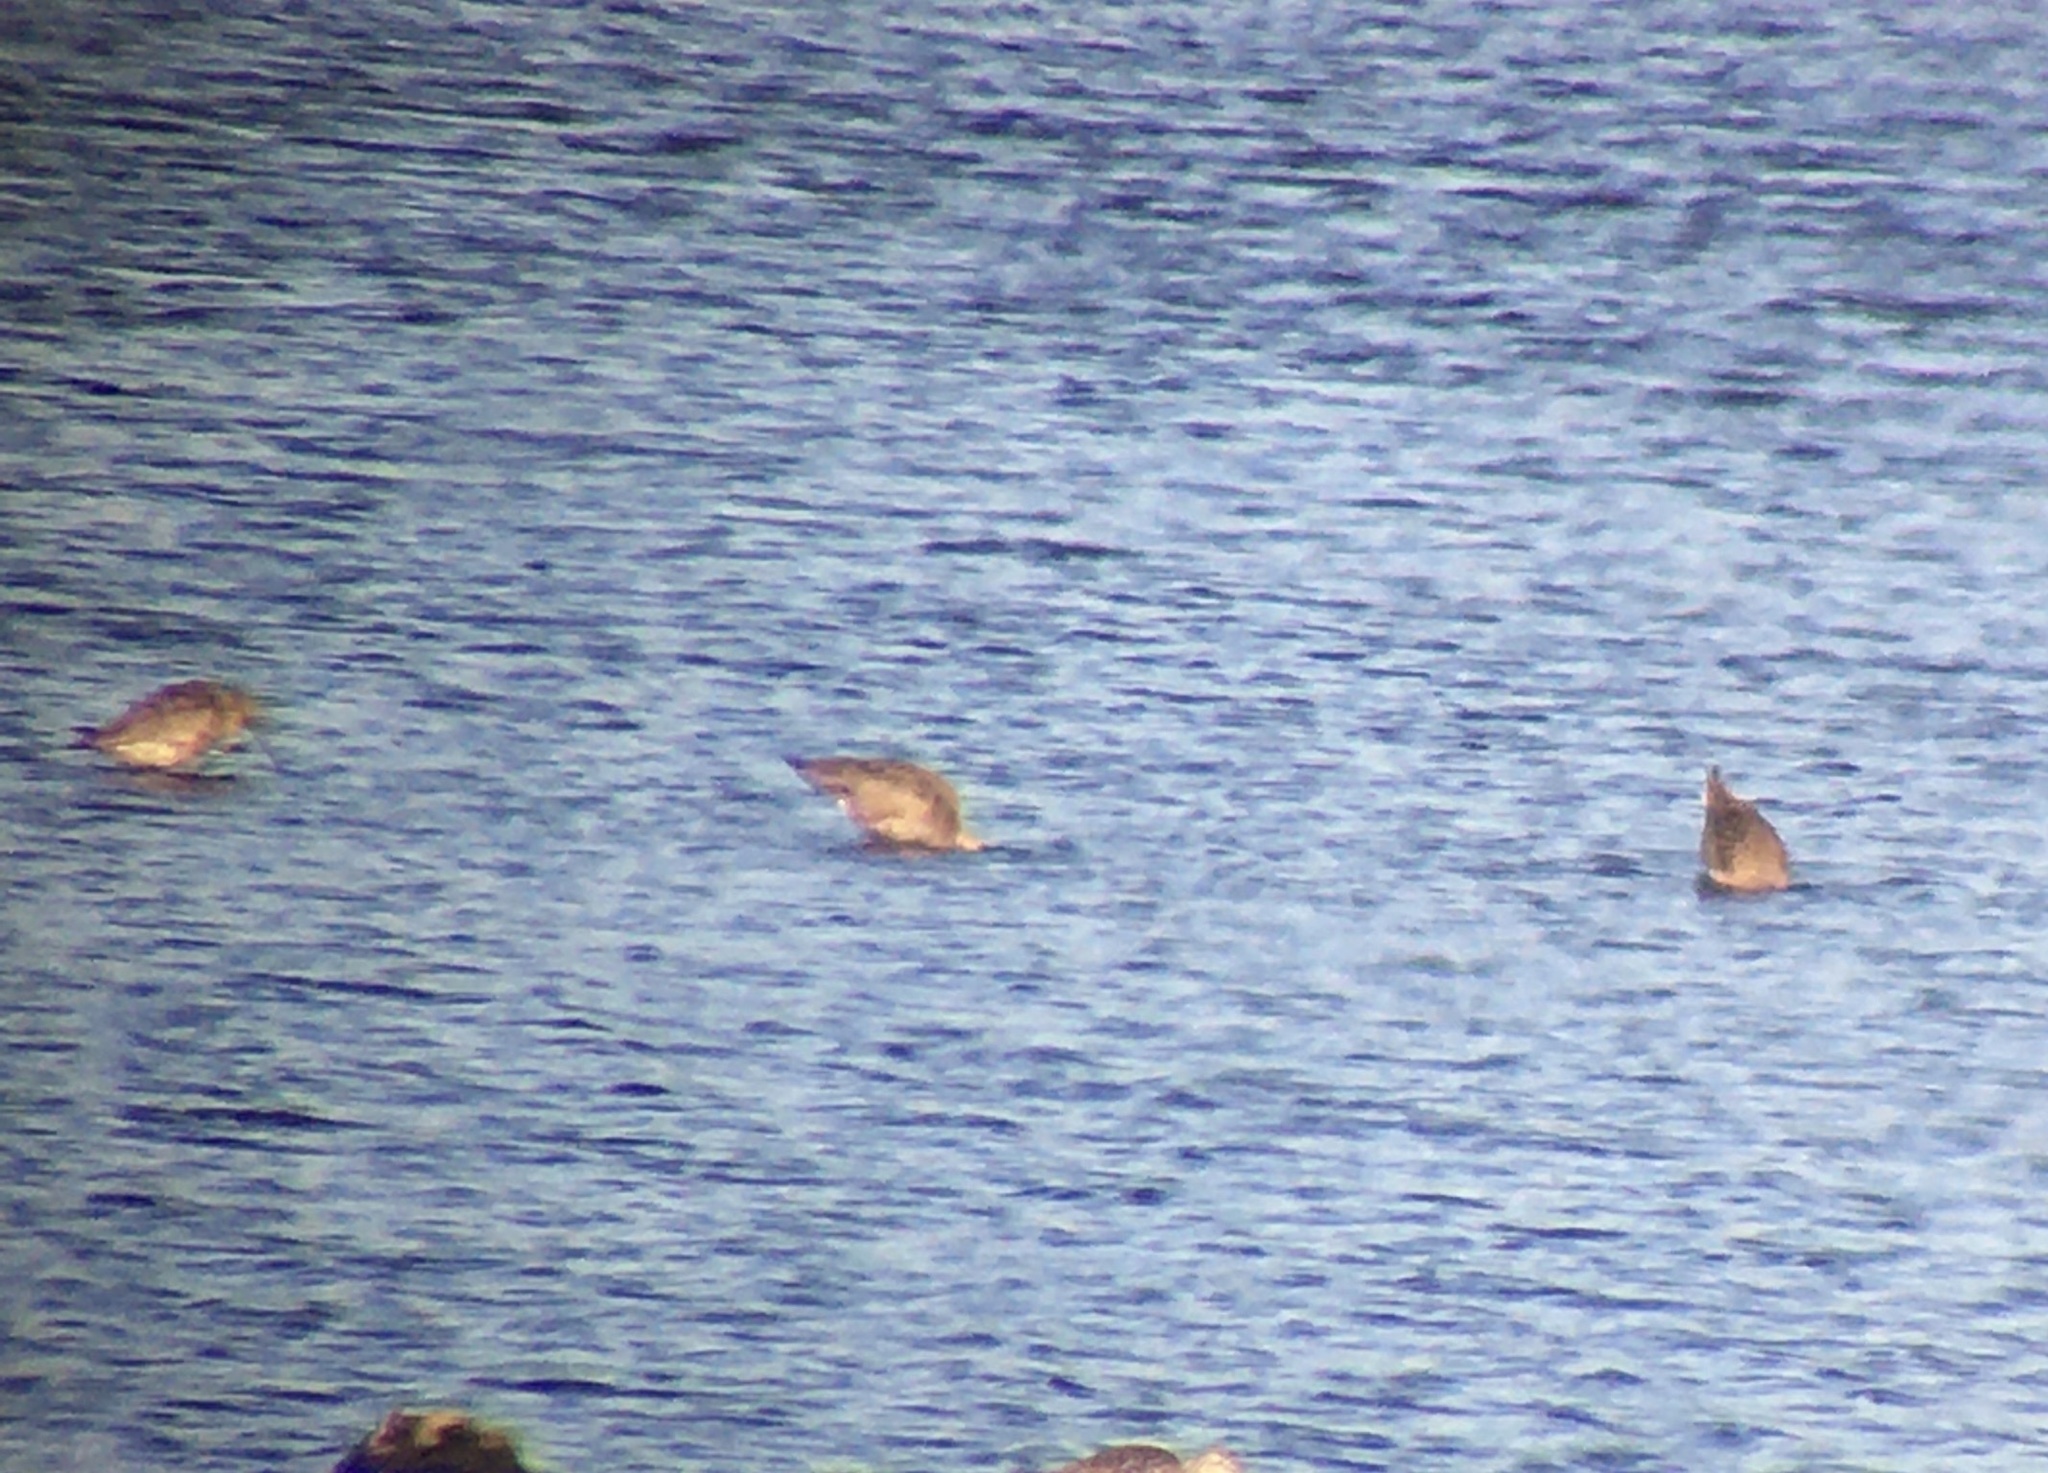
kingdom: Animalia
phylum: Chordata
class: Aves
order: Charadriiformes
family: Scolopacidae
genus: Limosa
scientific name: Limosa haemastica
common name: Hudsonian godwit
